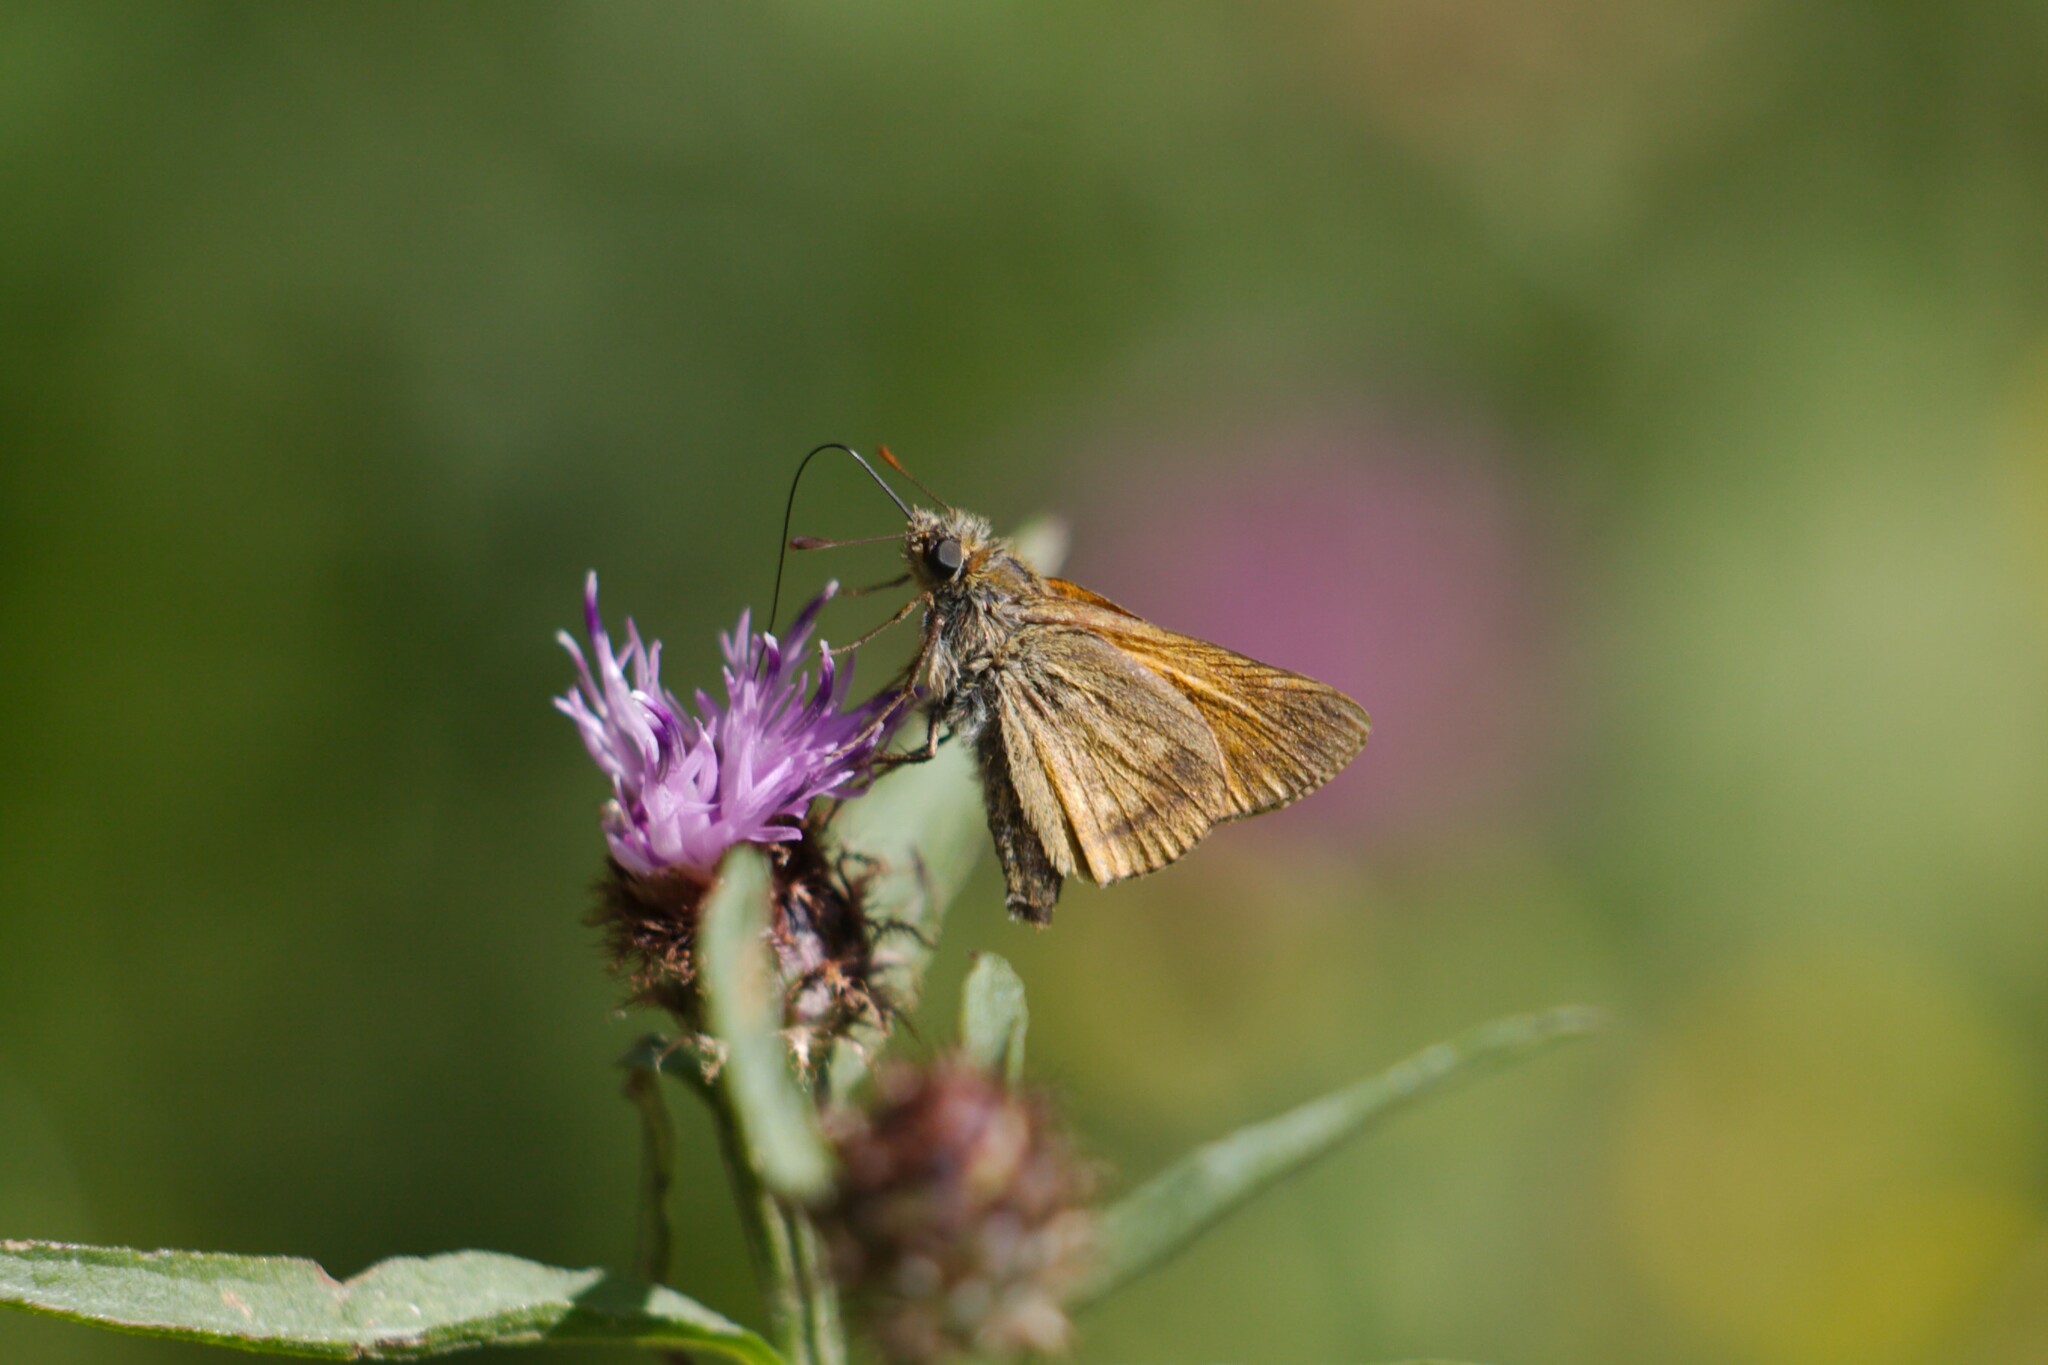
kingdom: Animalia
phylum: Arthropoda
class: Insecta
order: Lepidoptera
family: Hesperiidae
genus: Ochlodes
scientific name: Ochlodes venata
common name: Large skipper
